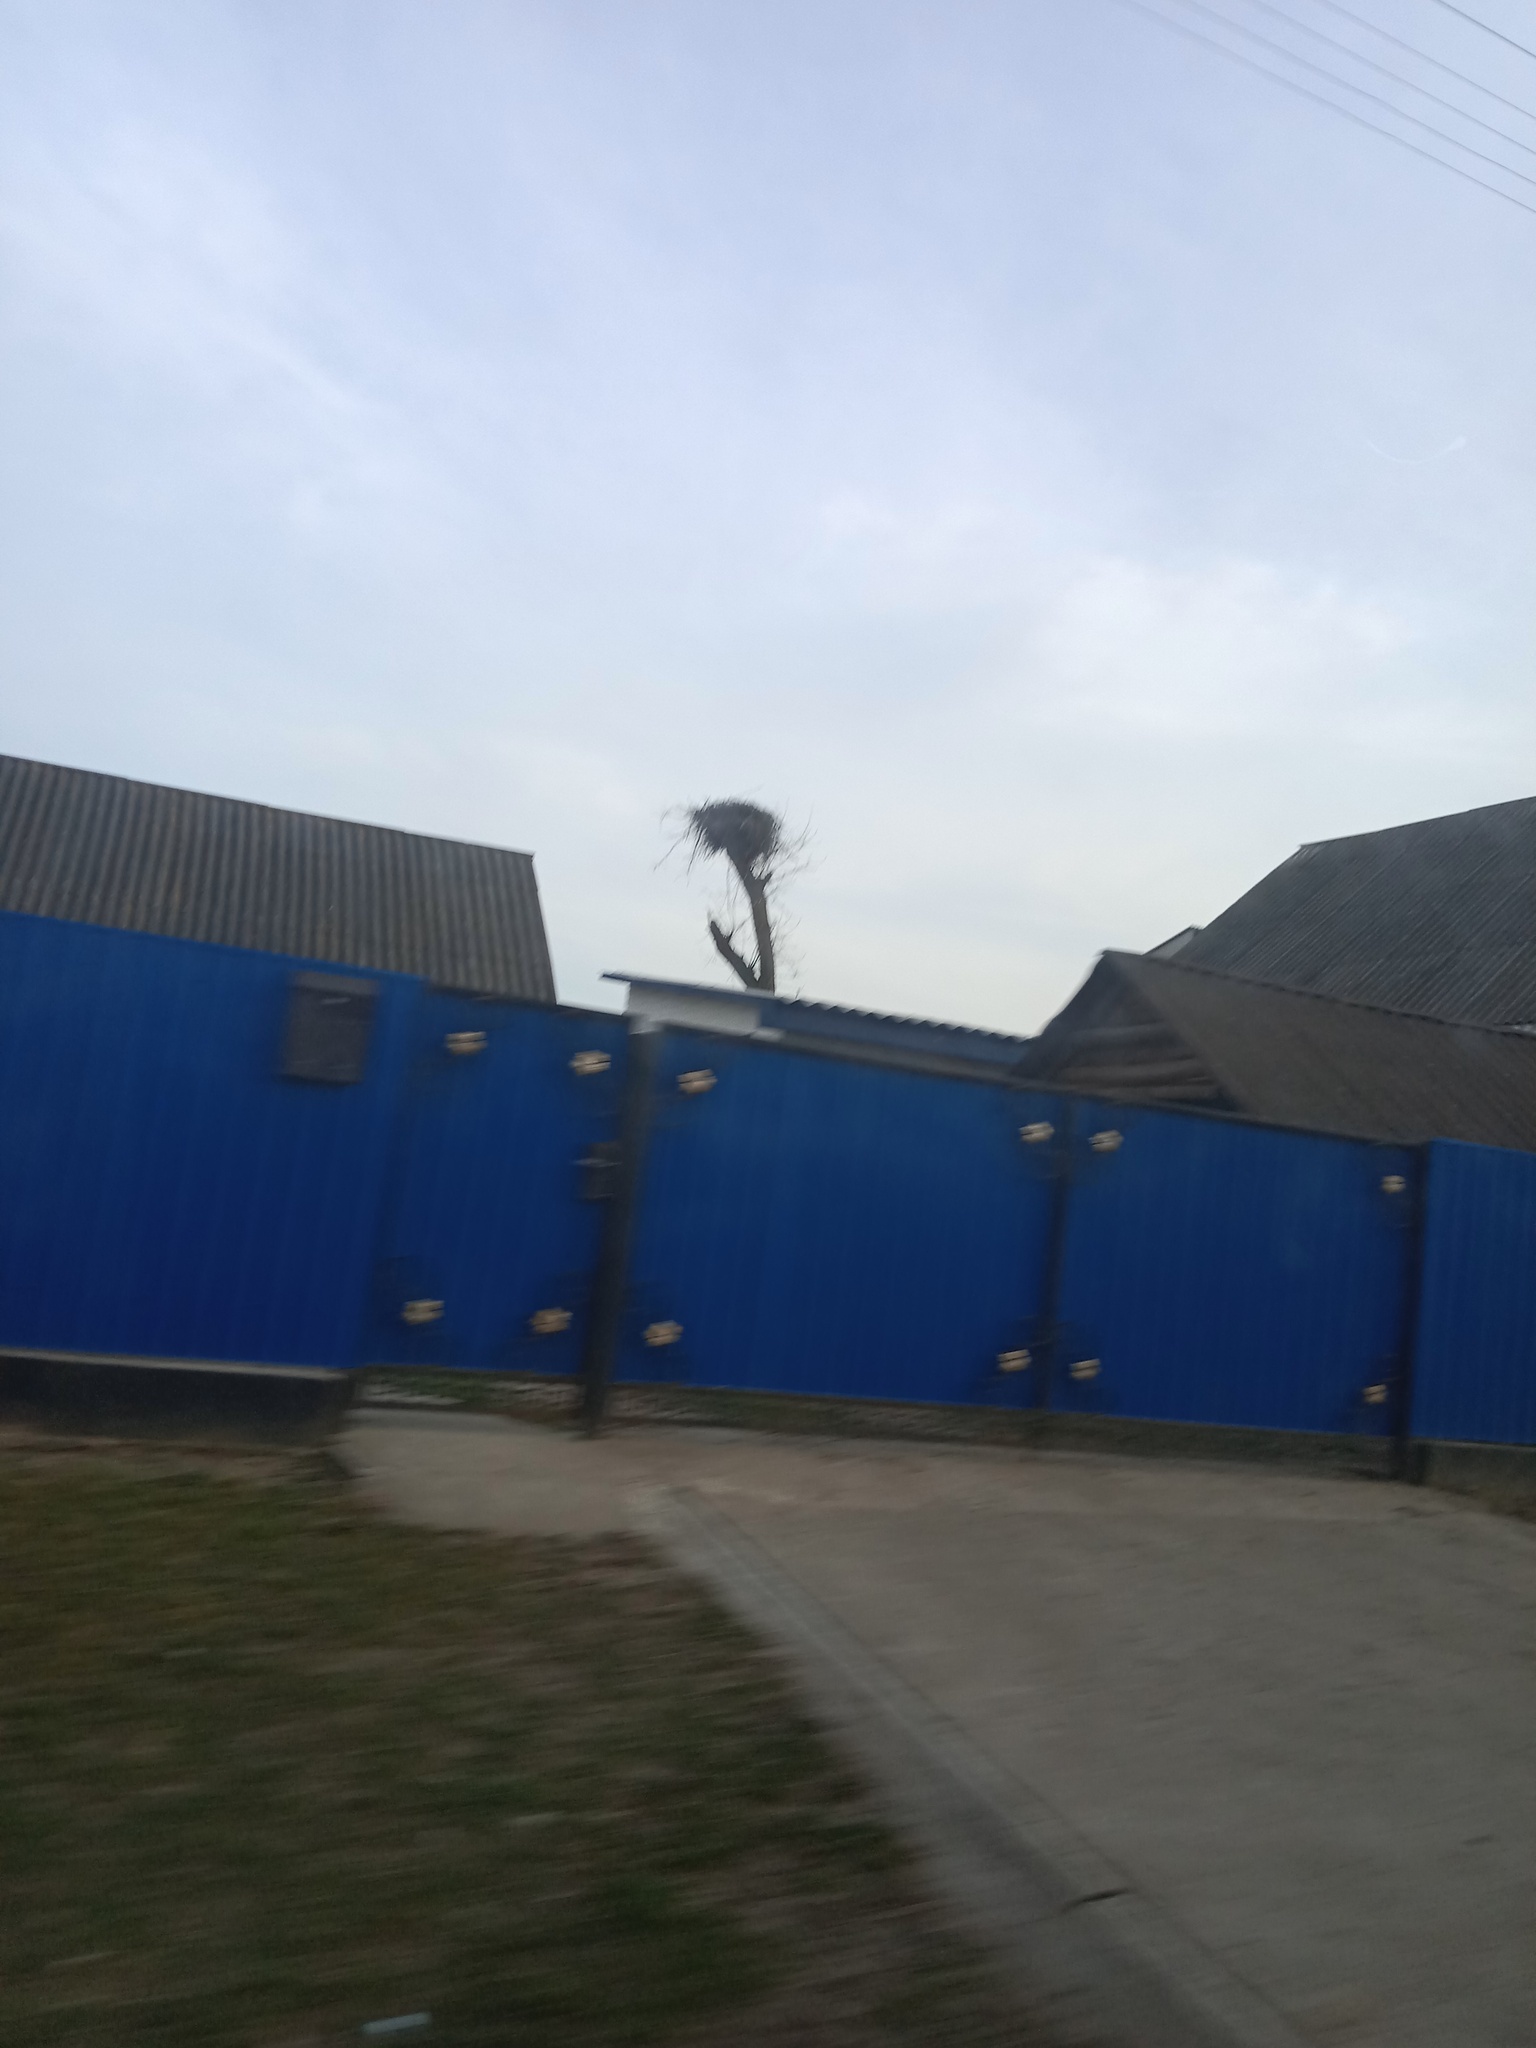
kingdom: Animalia
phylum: Chordata
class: Aves
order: Ciconiiformes
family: Ciconiidae
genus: Ciconia
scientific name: Ciconia ciconia
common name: White stork
